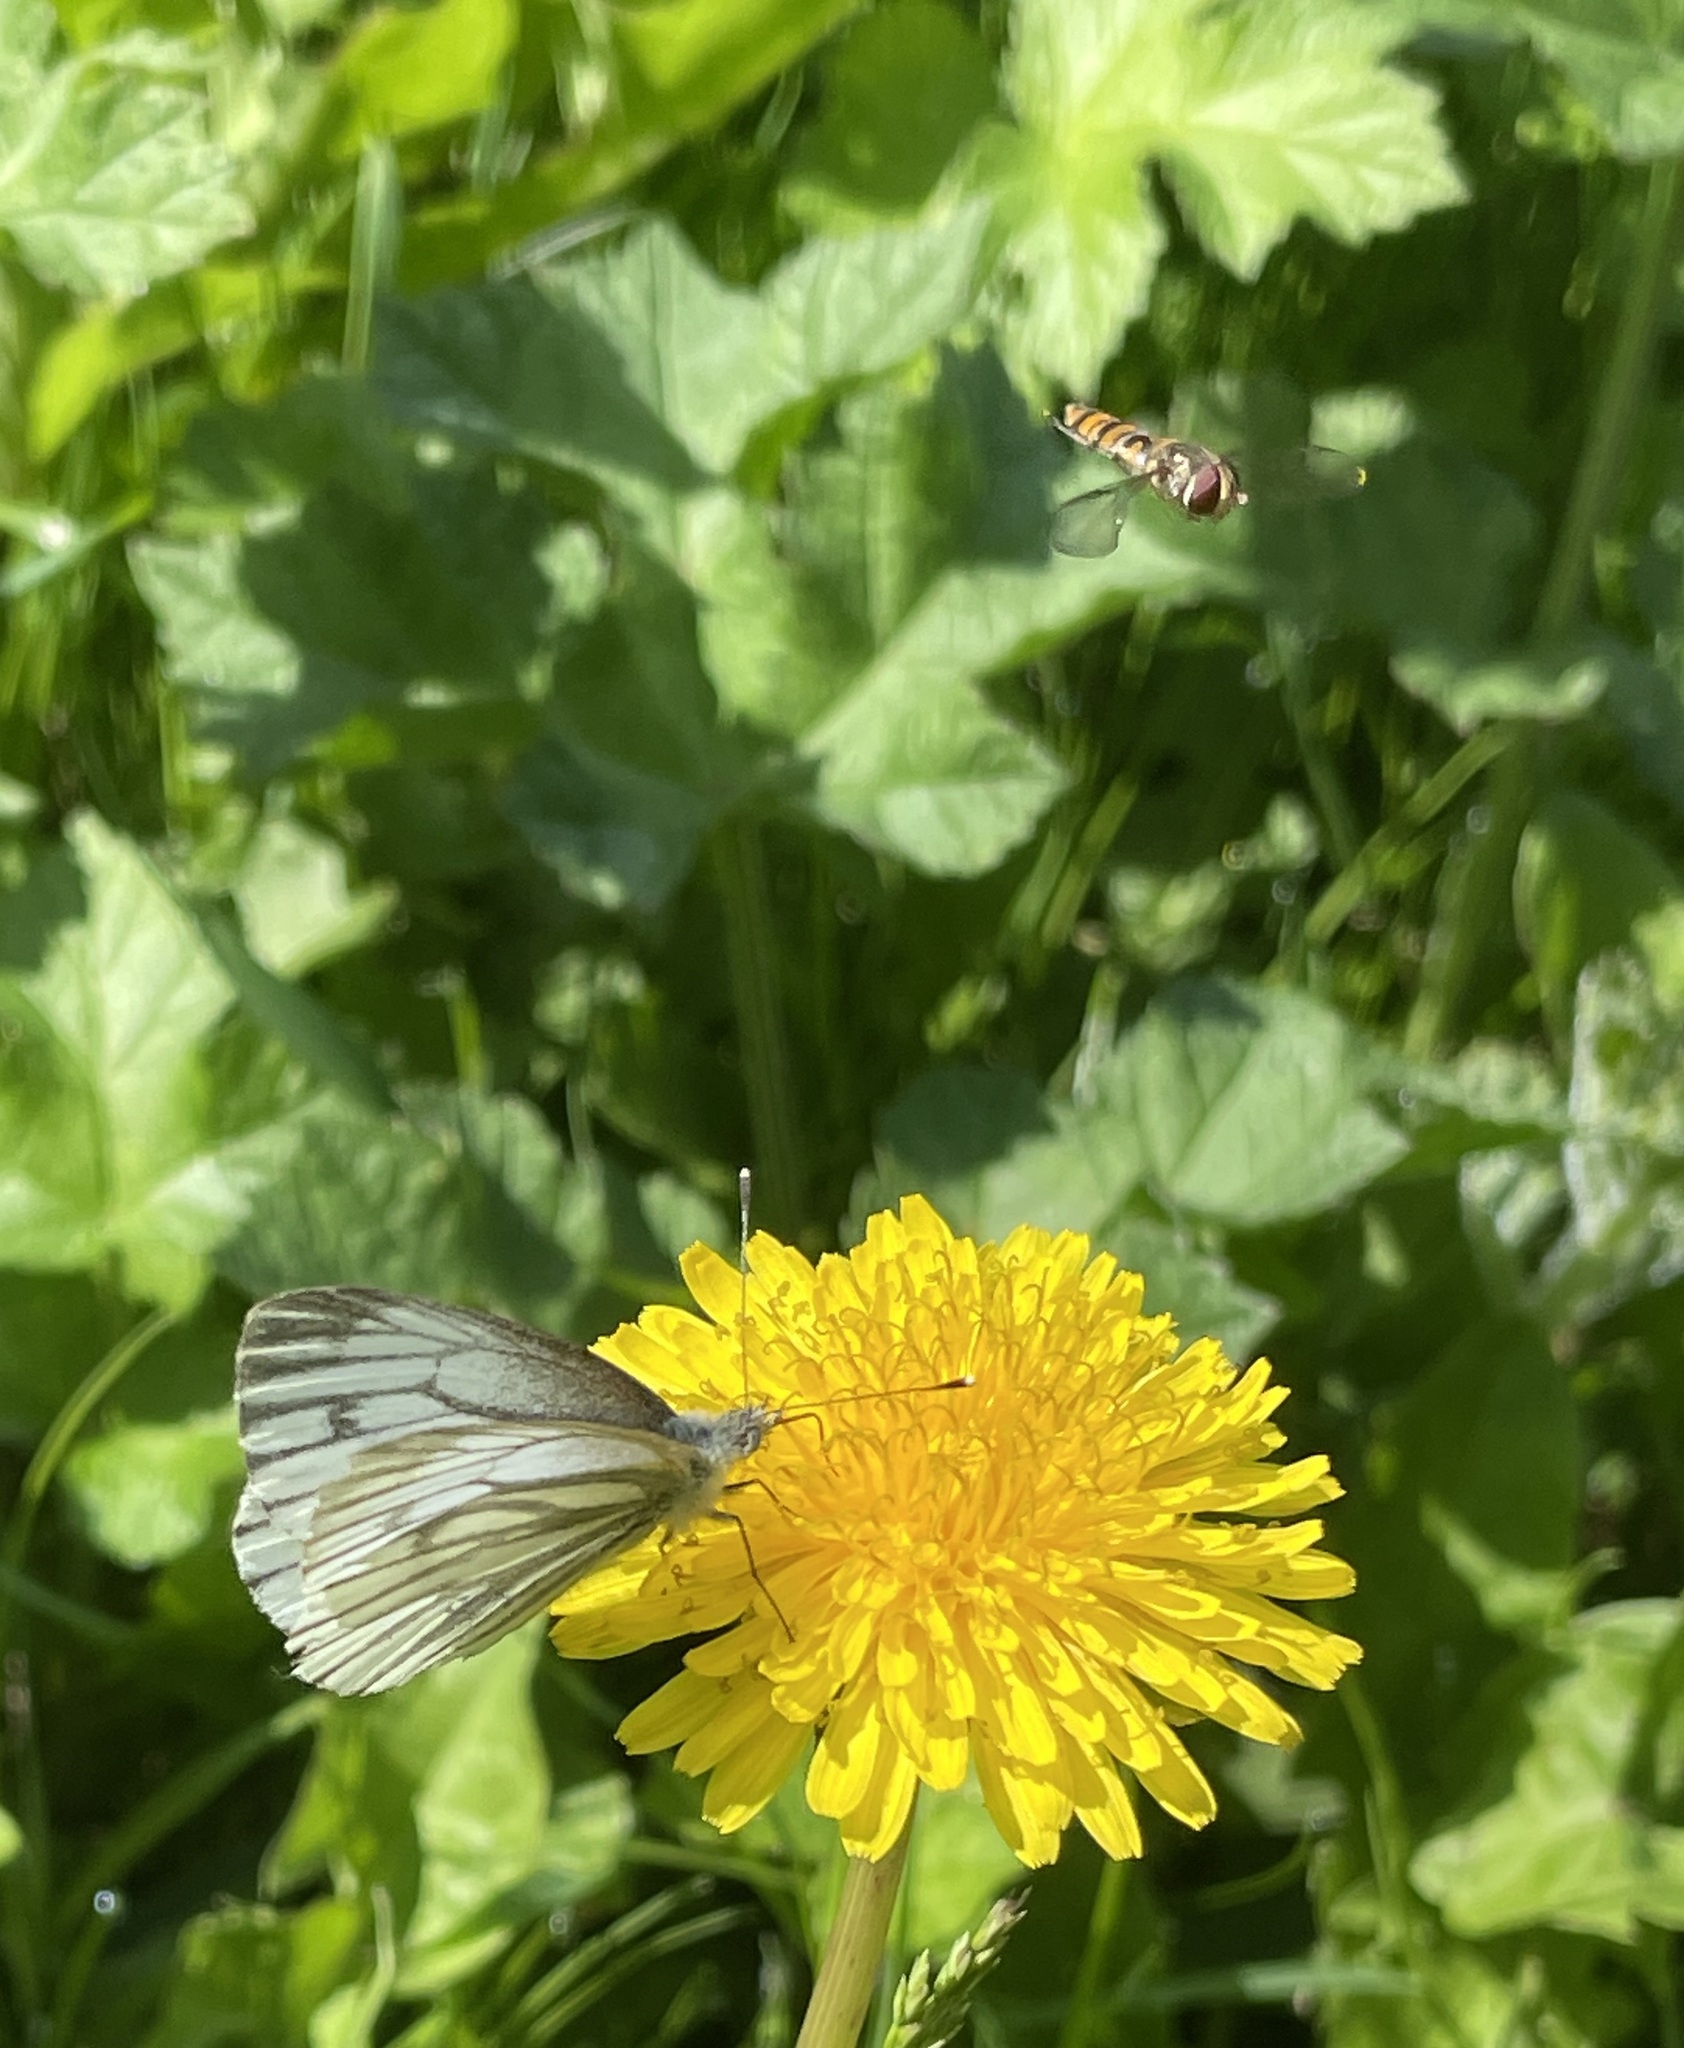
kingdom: Animalia
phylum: Arthropoda
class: Insecta
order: Lepidoptera
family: Pieridae
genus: Pieris
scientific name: Pieris napi
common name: Green-veined white
